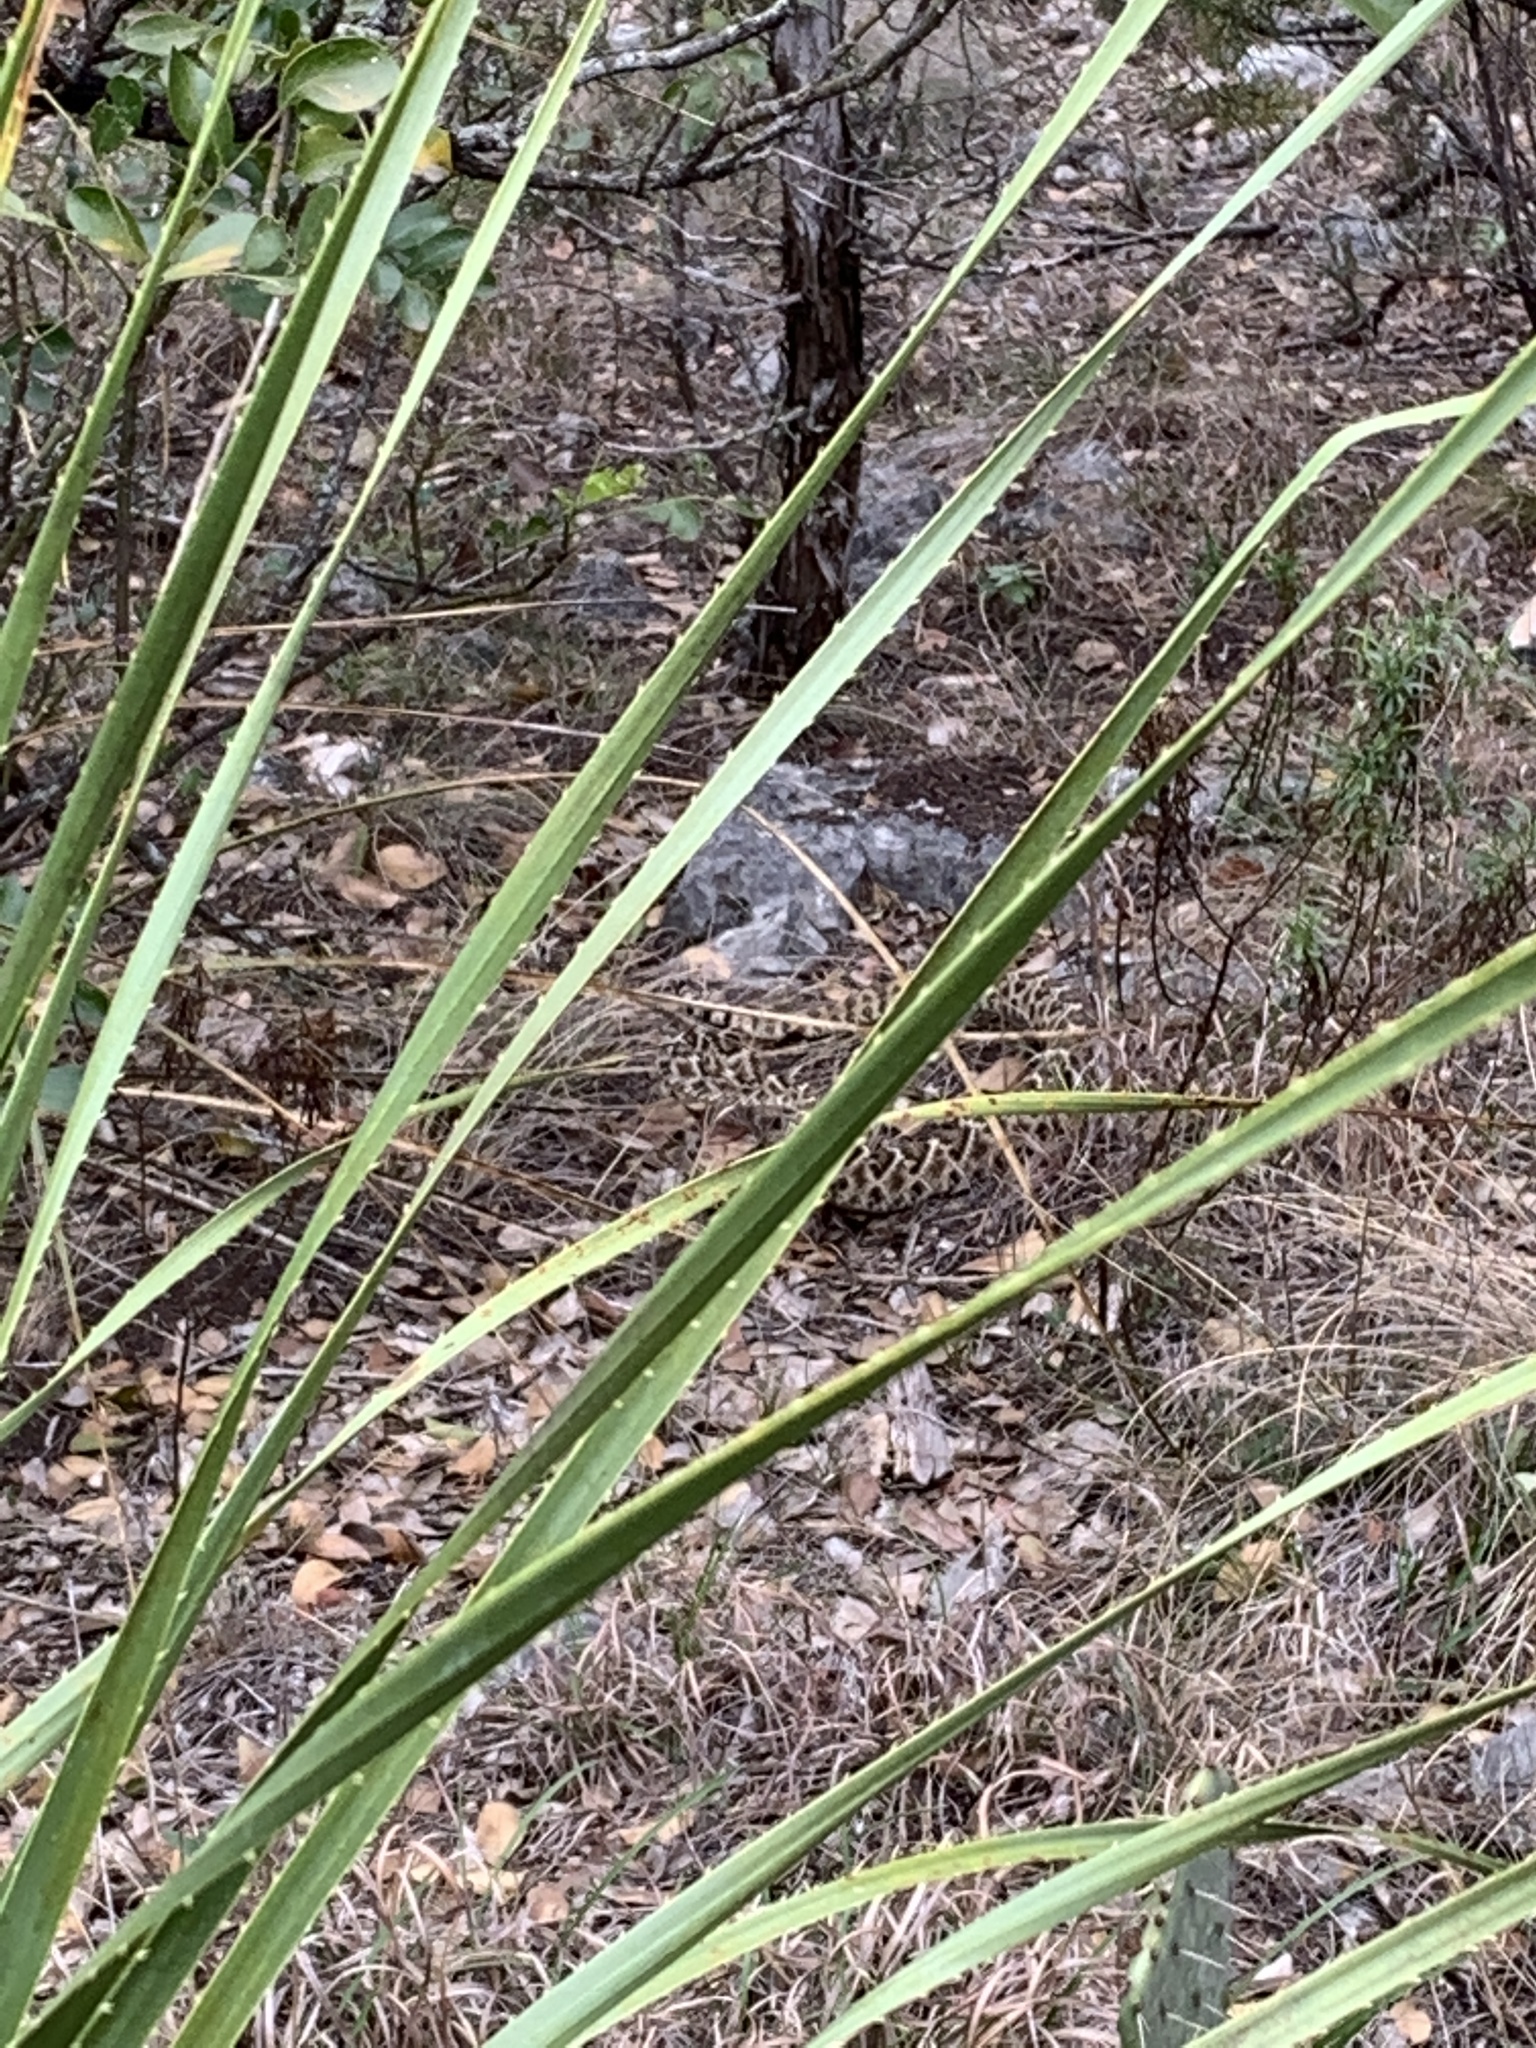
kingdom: Animalia
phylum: Chordata
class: Squamata
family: Viperidae
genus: Crotalus
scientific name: Crotalus atrox
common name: Western diamond-backed rattlesnake
